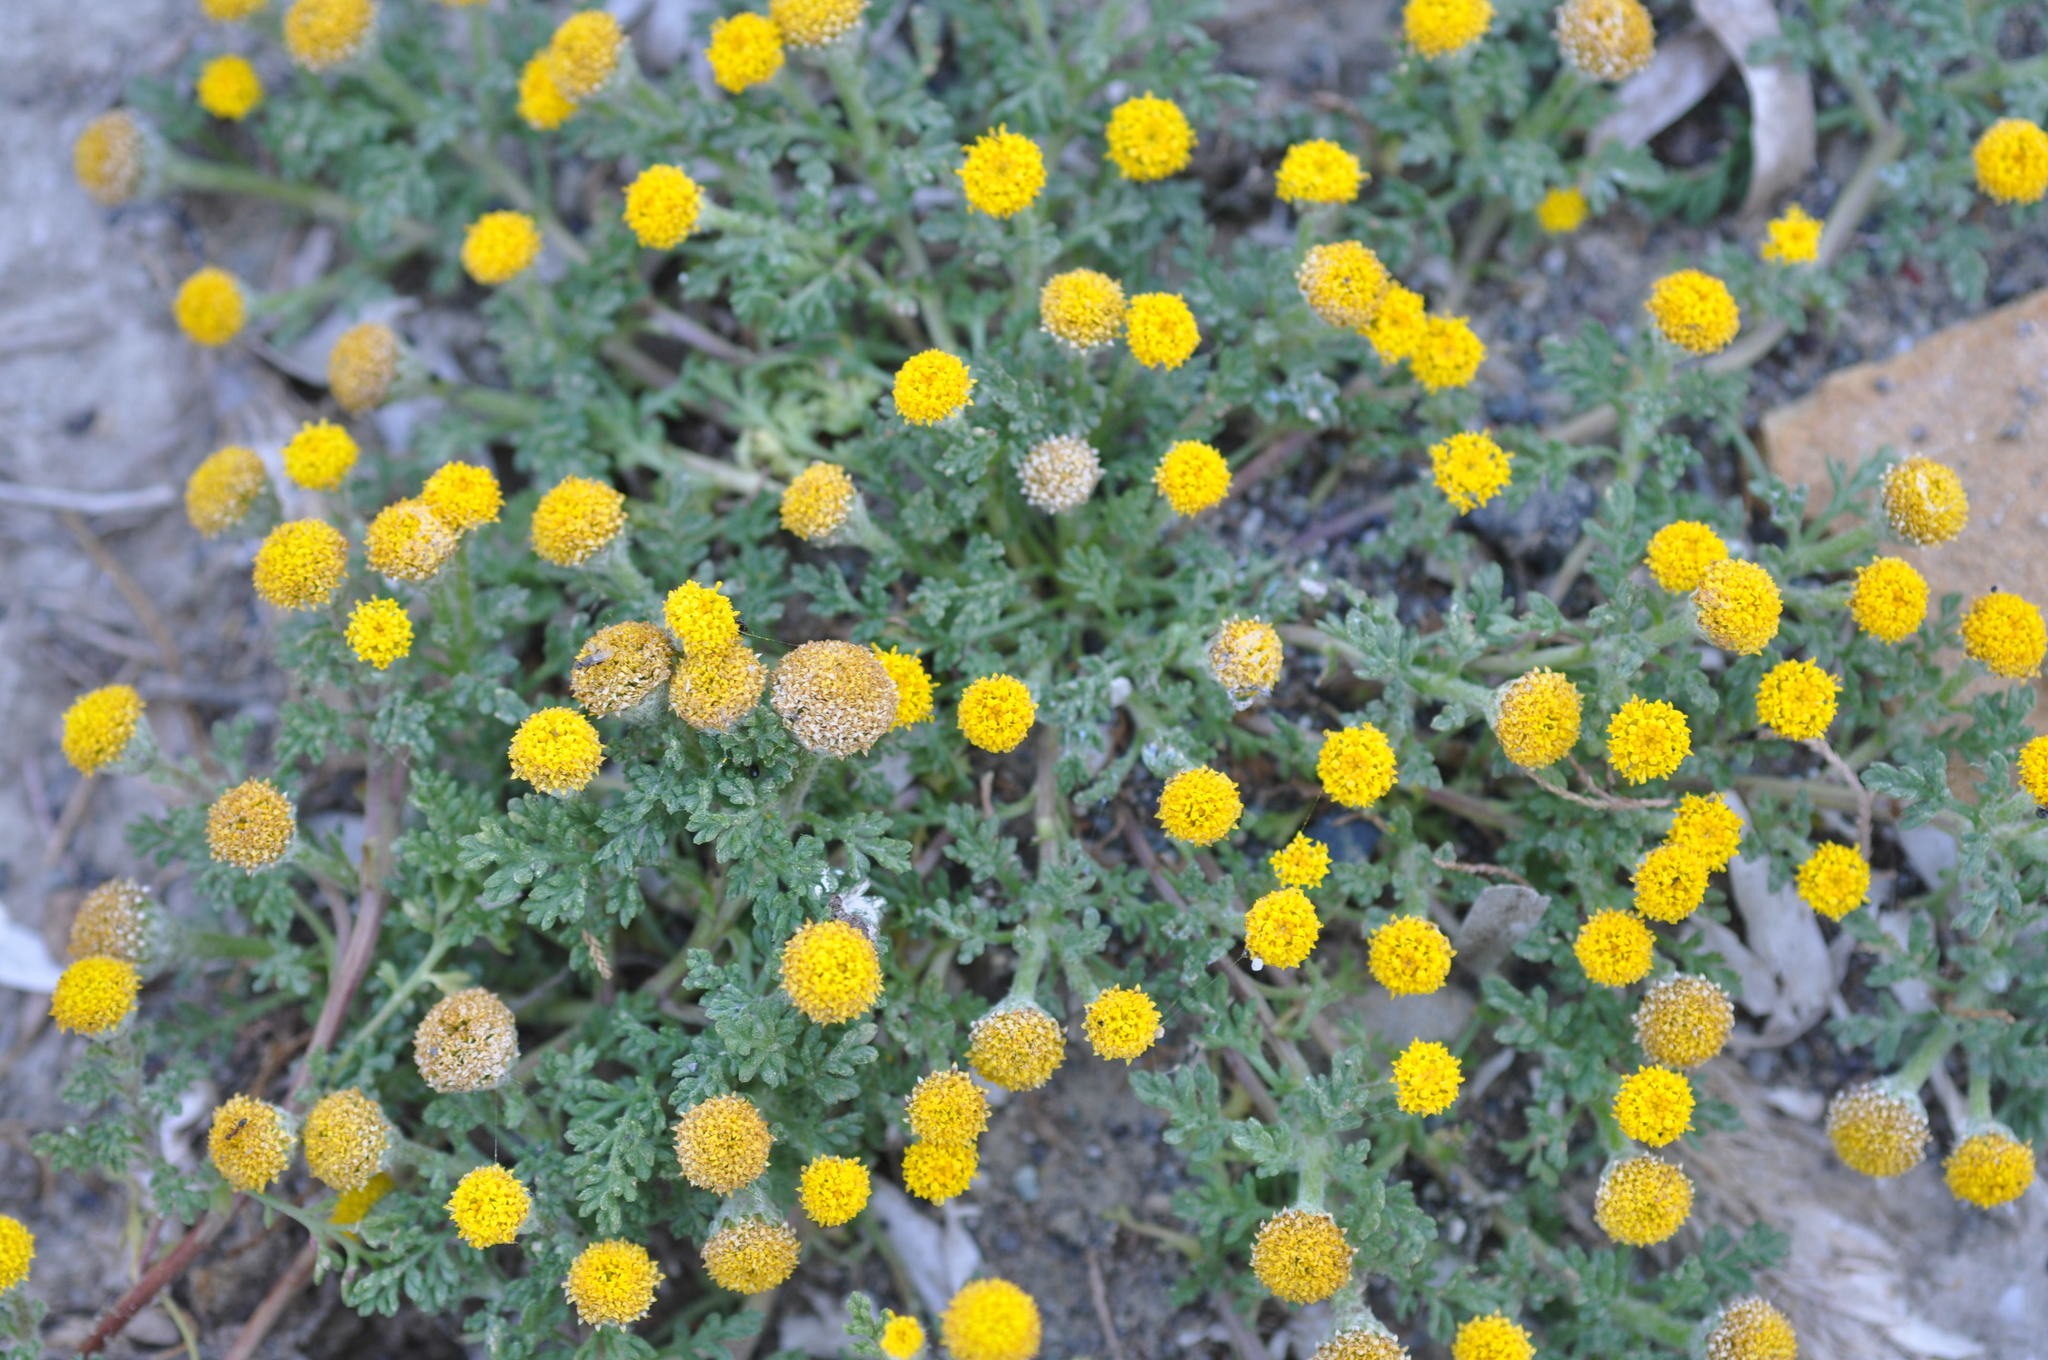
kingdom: Plantae
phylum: Tracheophyta
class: Magnoliopsida
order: Asterales
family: Asteraceae
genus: Anthemis
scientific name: Anthemis rigida
